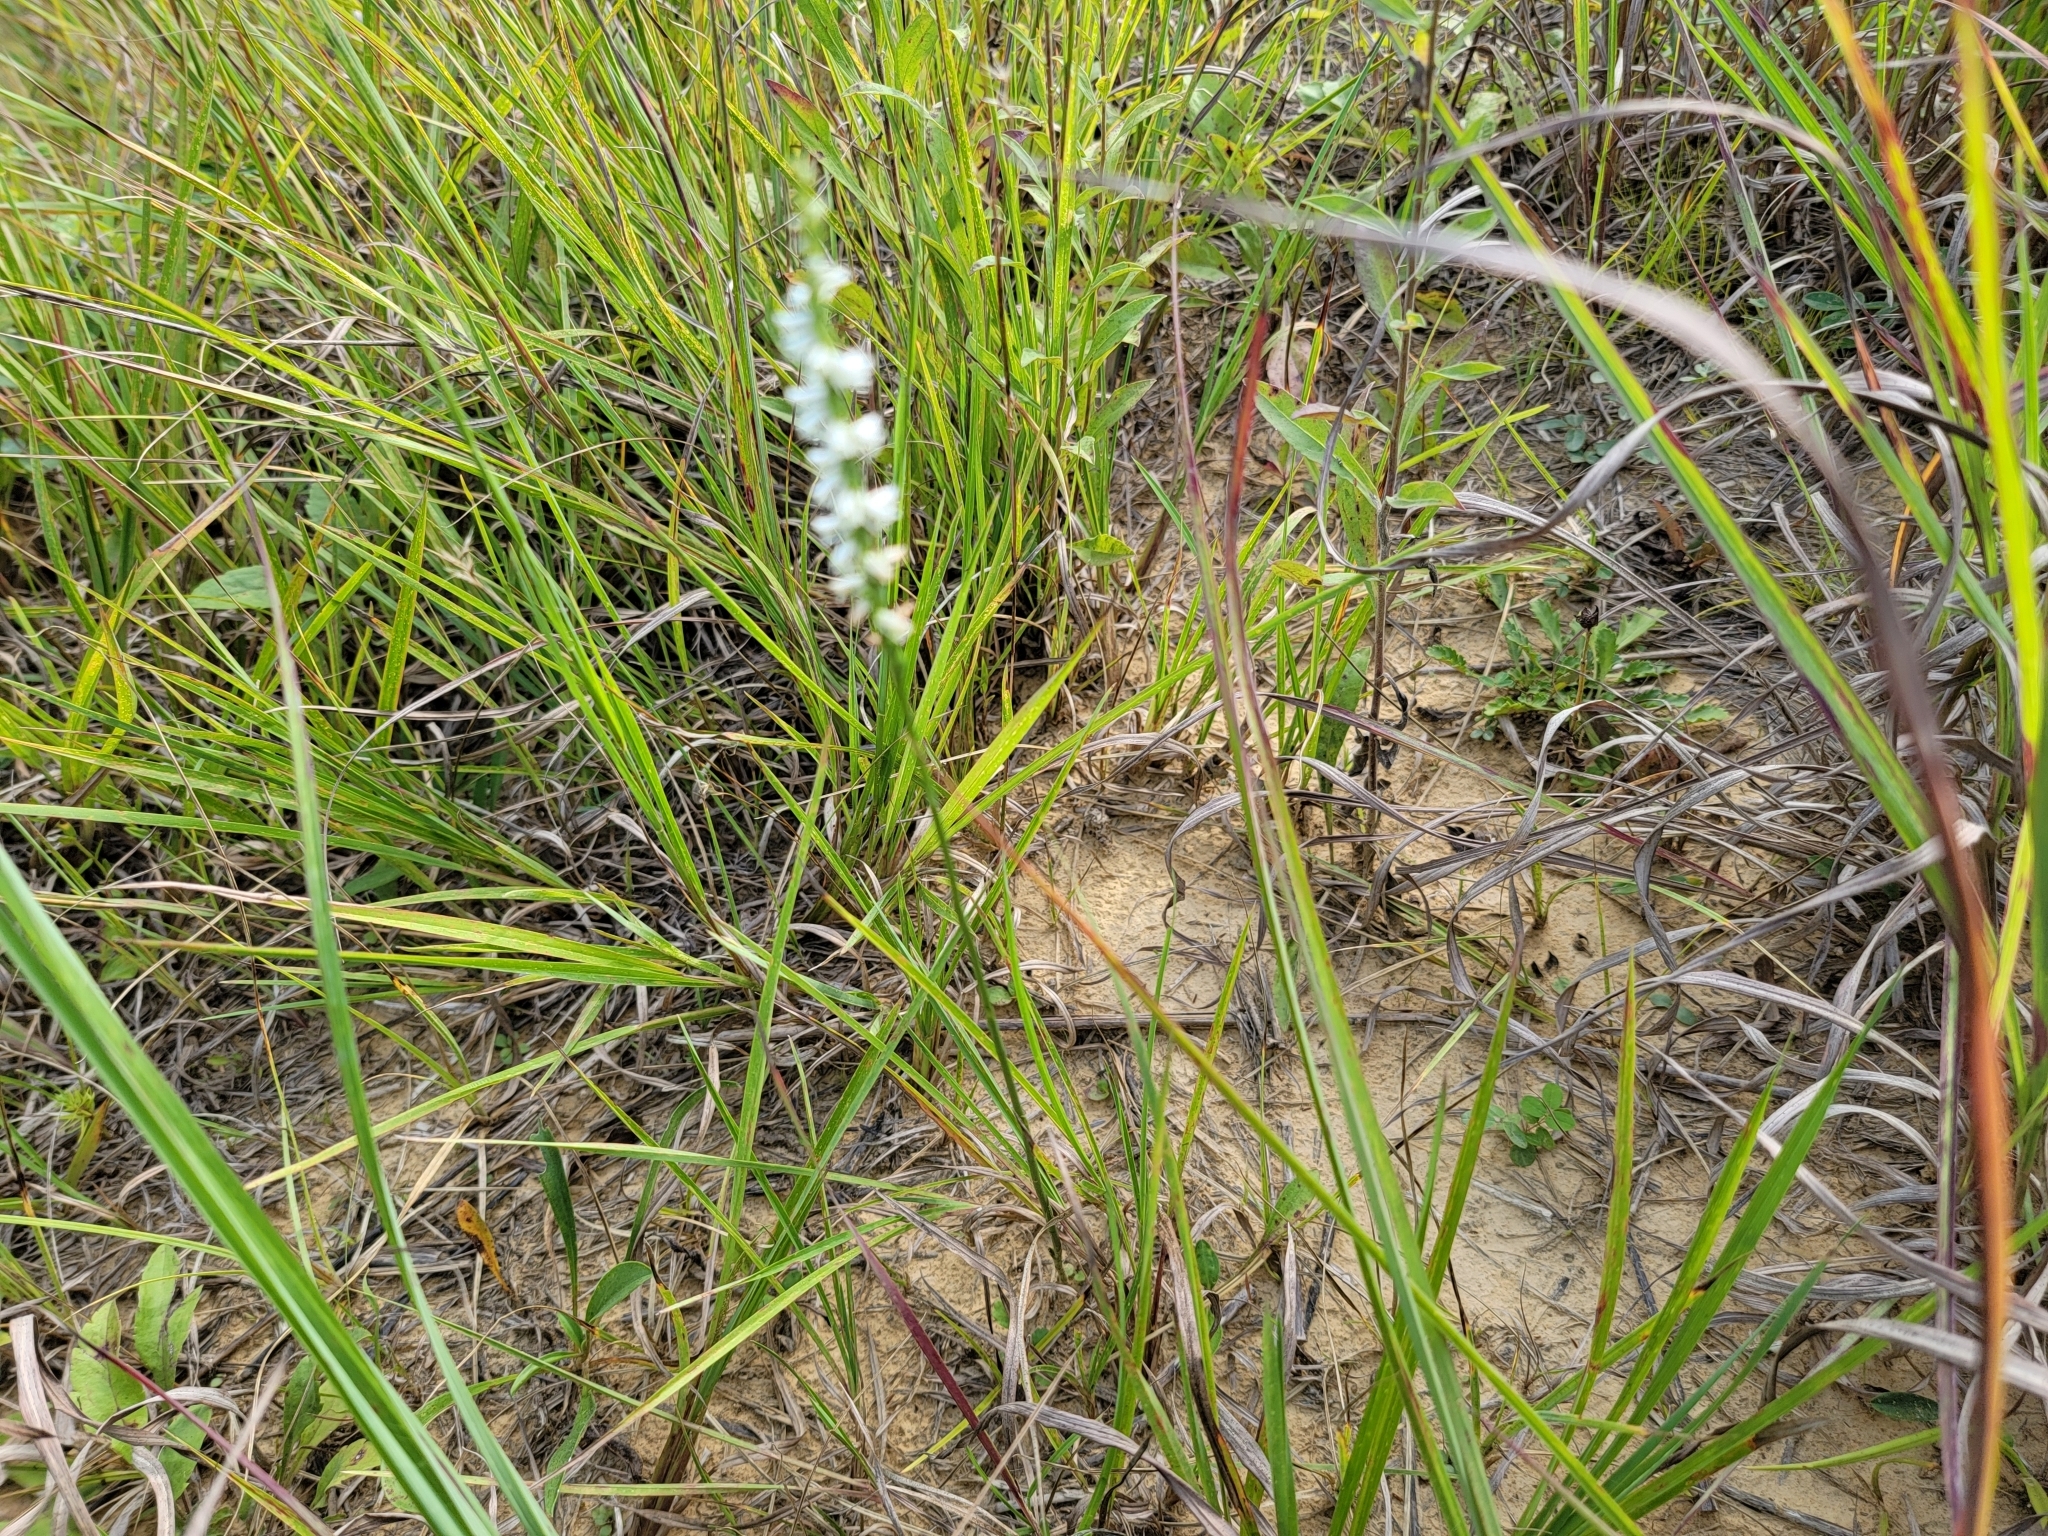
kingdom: Plantae
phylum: Tracheophyta
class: Liliopsida
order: Asparagales
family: Orchidaceae
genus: Spiranthes
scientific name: Spiranthes lacera
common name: Northern slender ladies'-tresses
